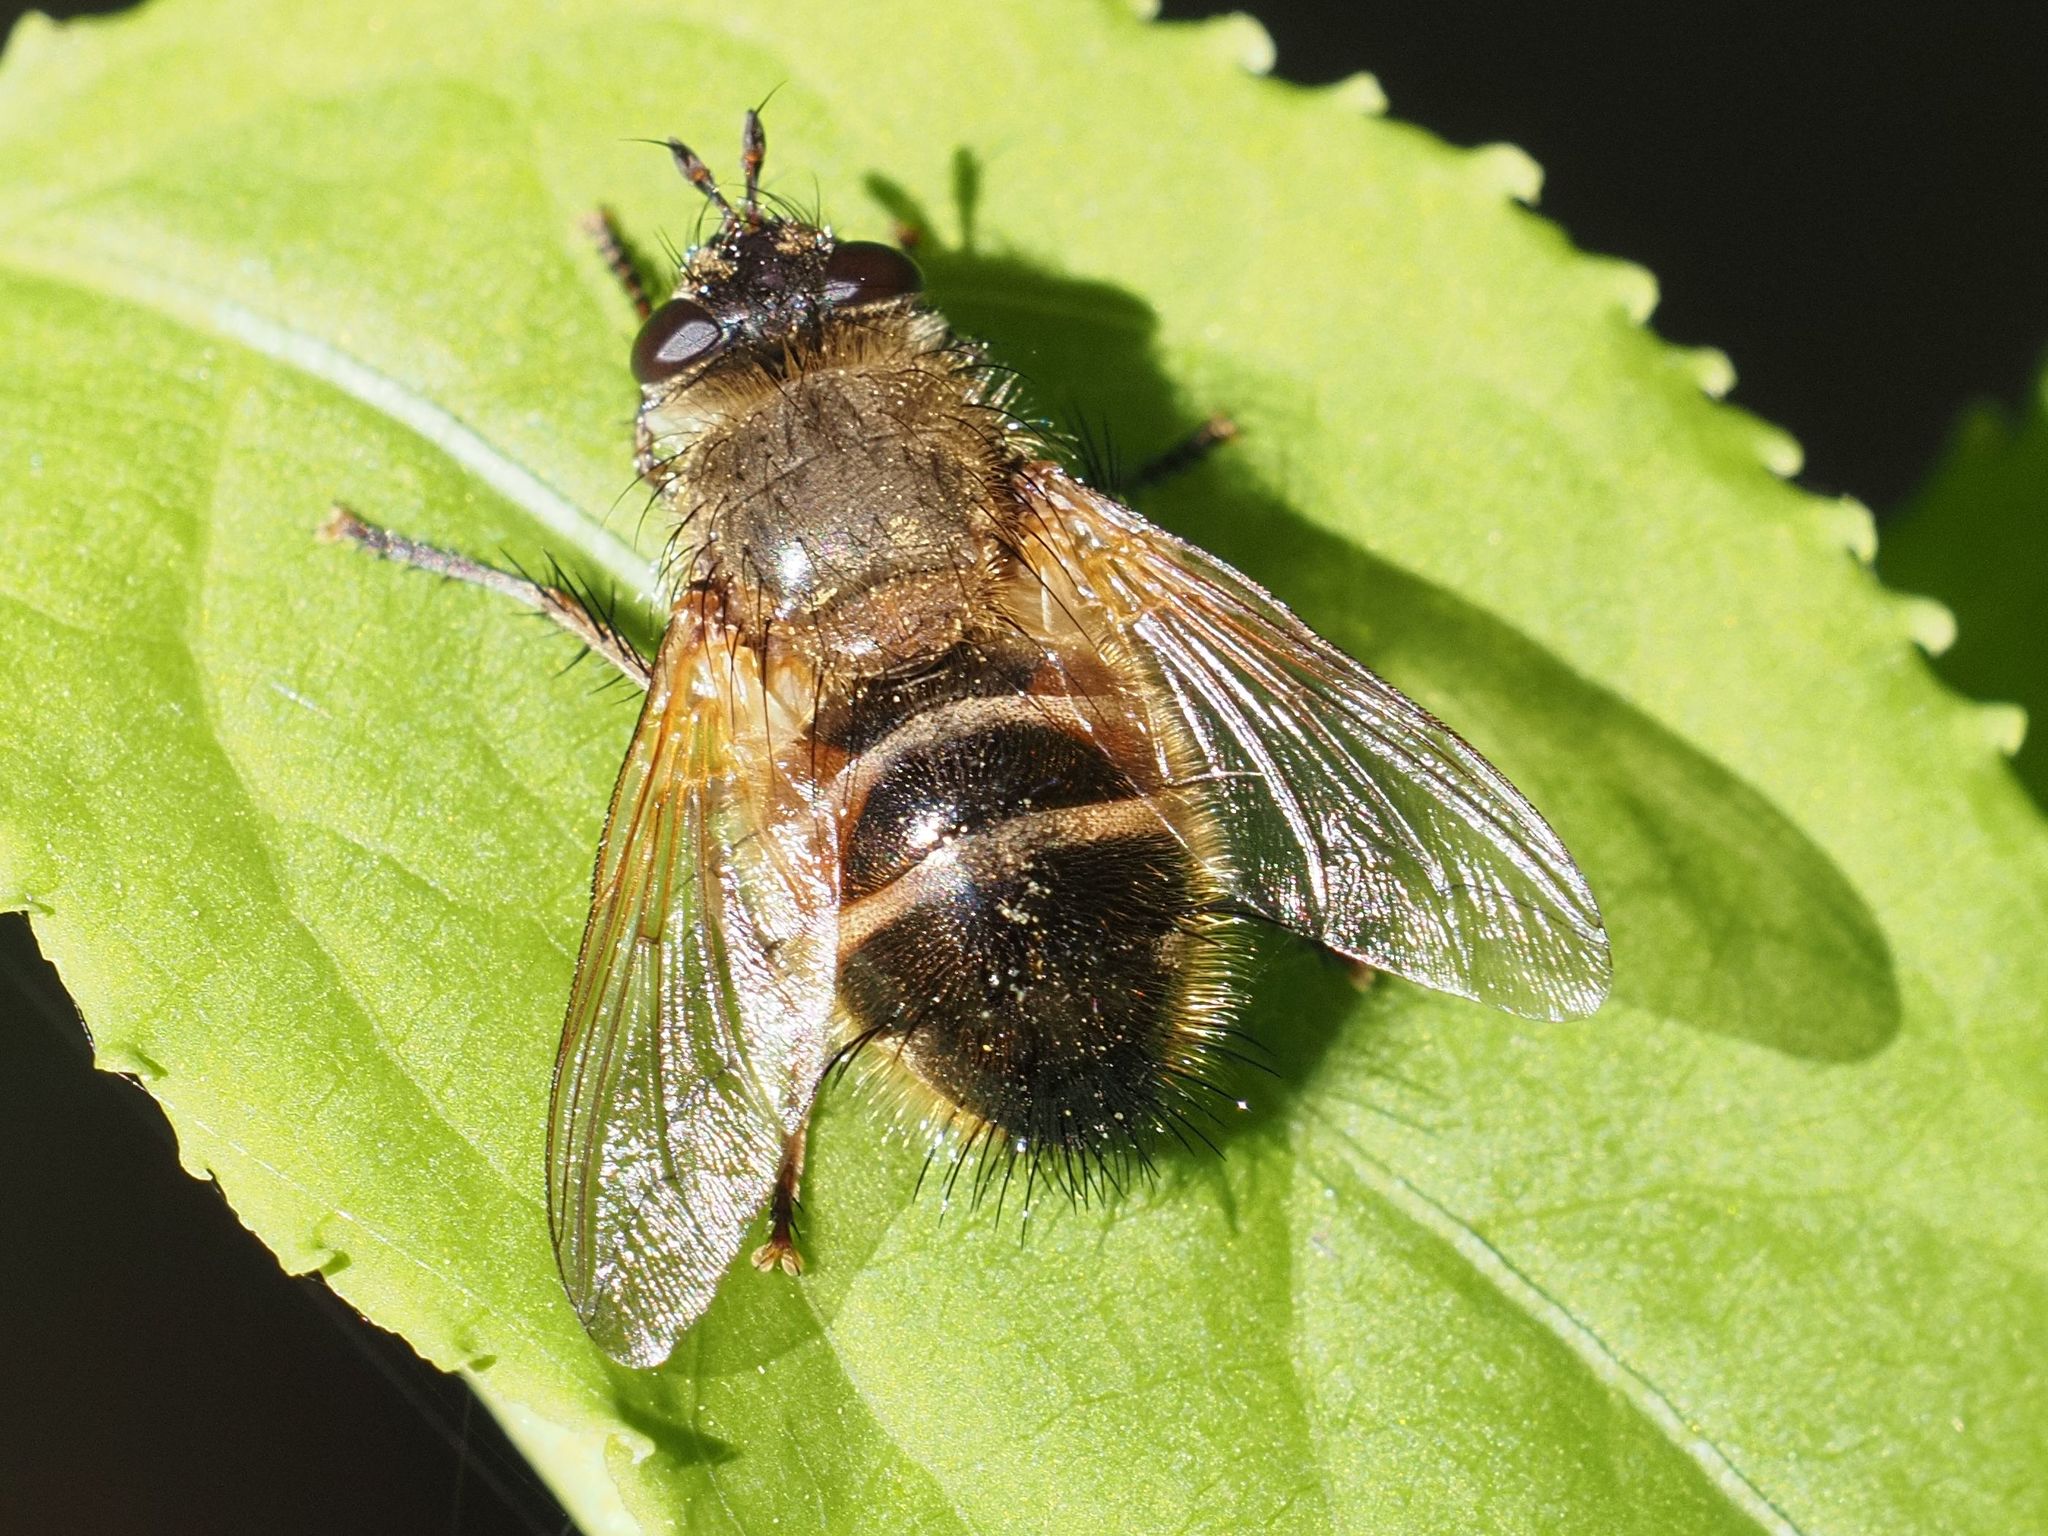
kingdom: Animalia
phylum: Arthropoda
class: Insecta
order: Diptera
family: Tachinidae
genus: Tachina
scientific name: Tachina lurida
